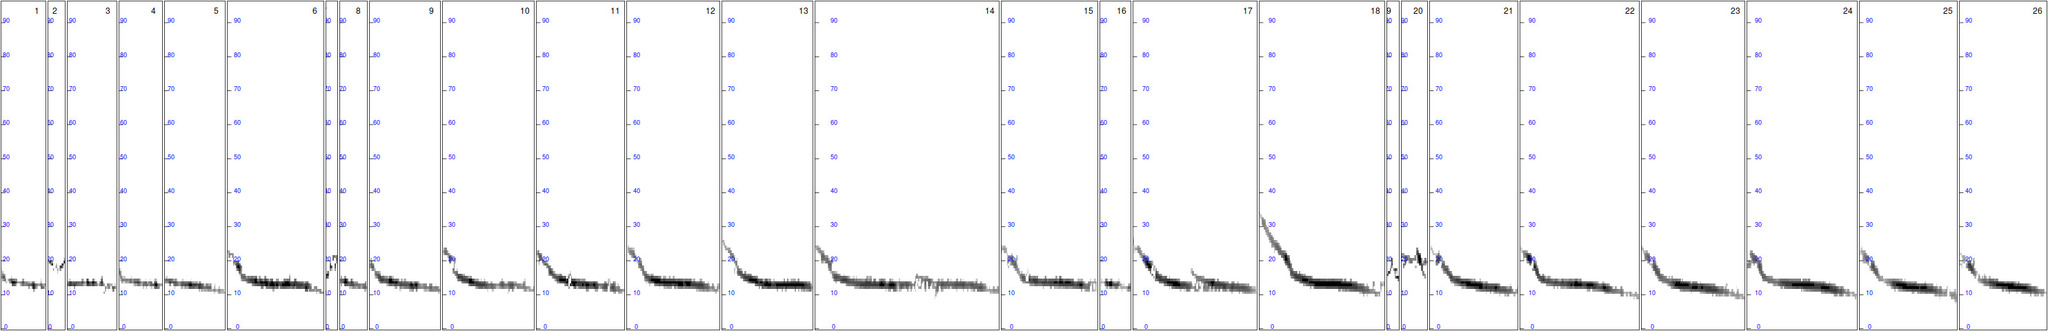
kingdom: Animalia
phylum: Chordata
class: Mammalia
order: Chiroptera
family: Vespertilionidae
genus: Vespertilio
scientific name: Vespertilio murinus
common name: Particolored bat
